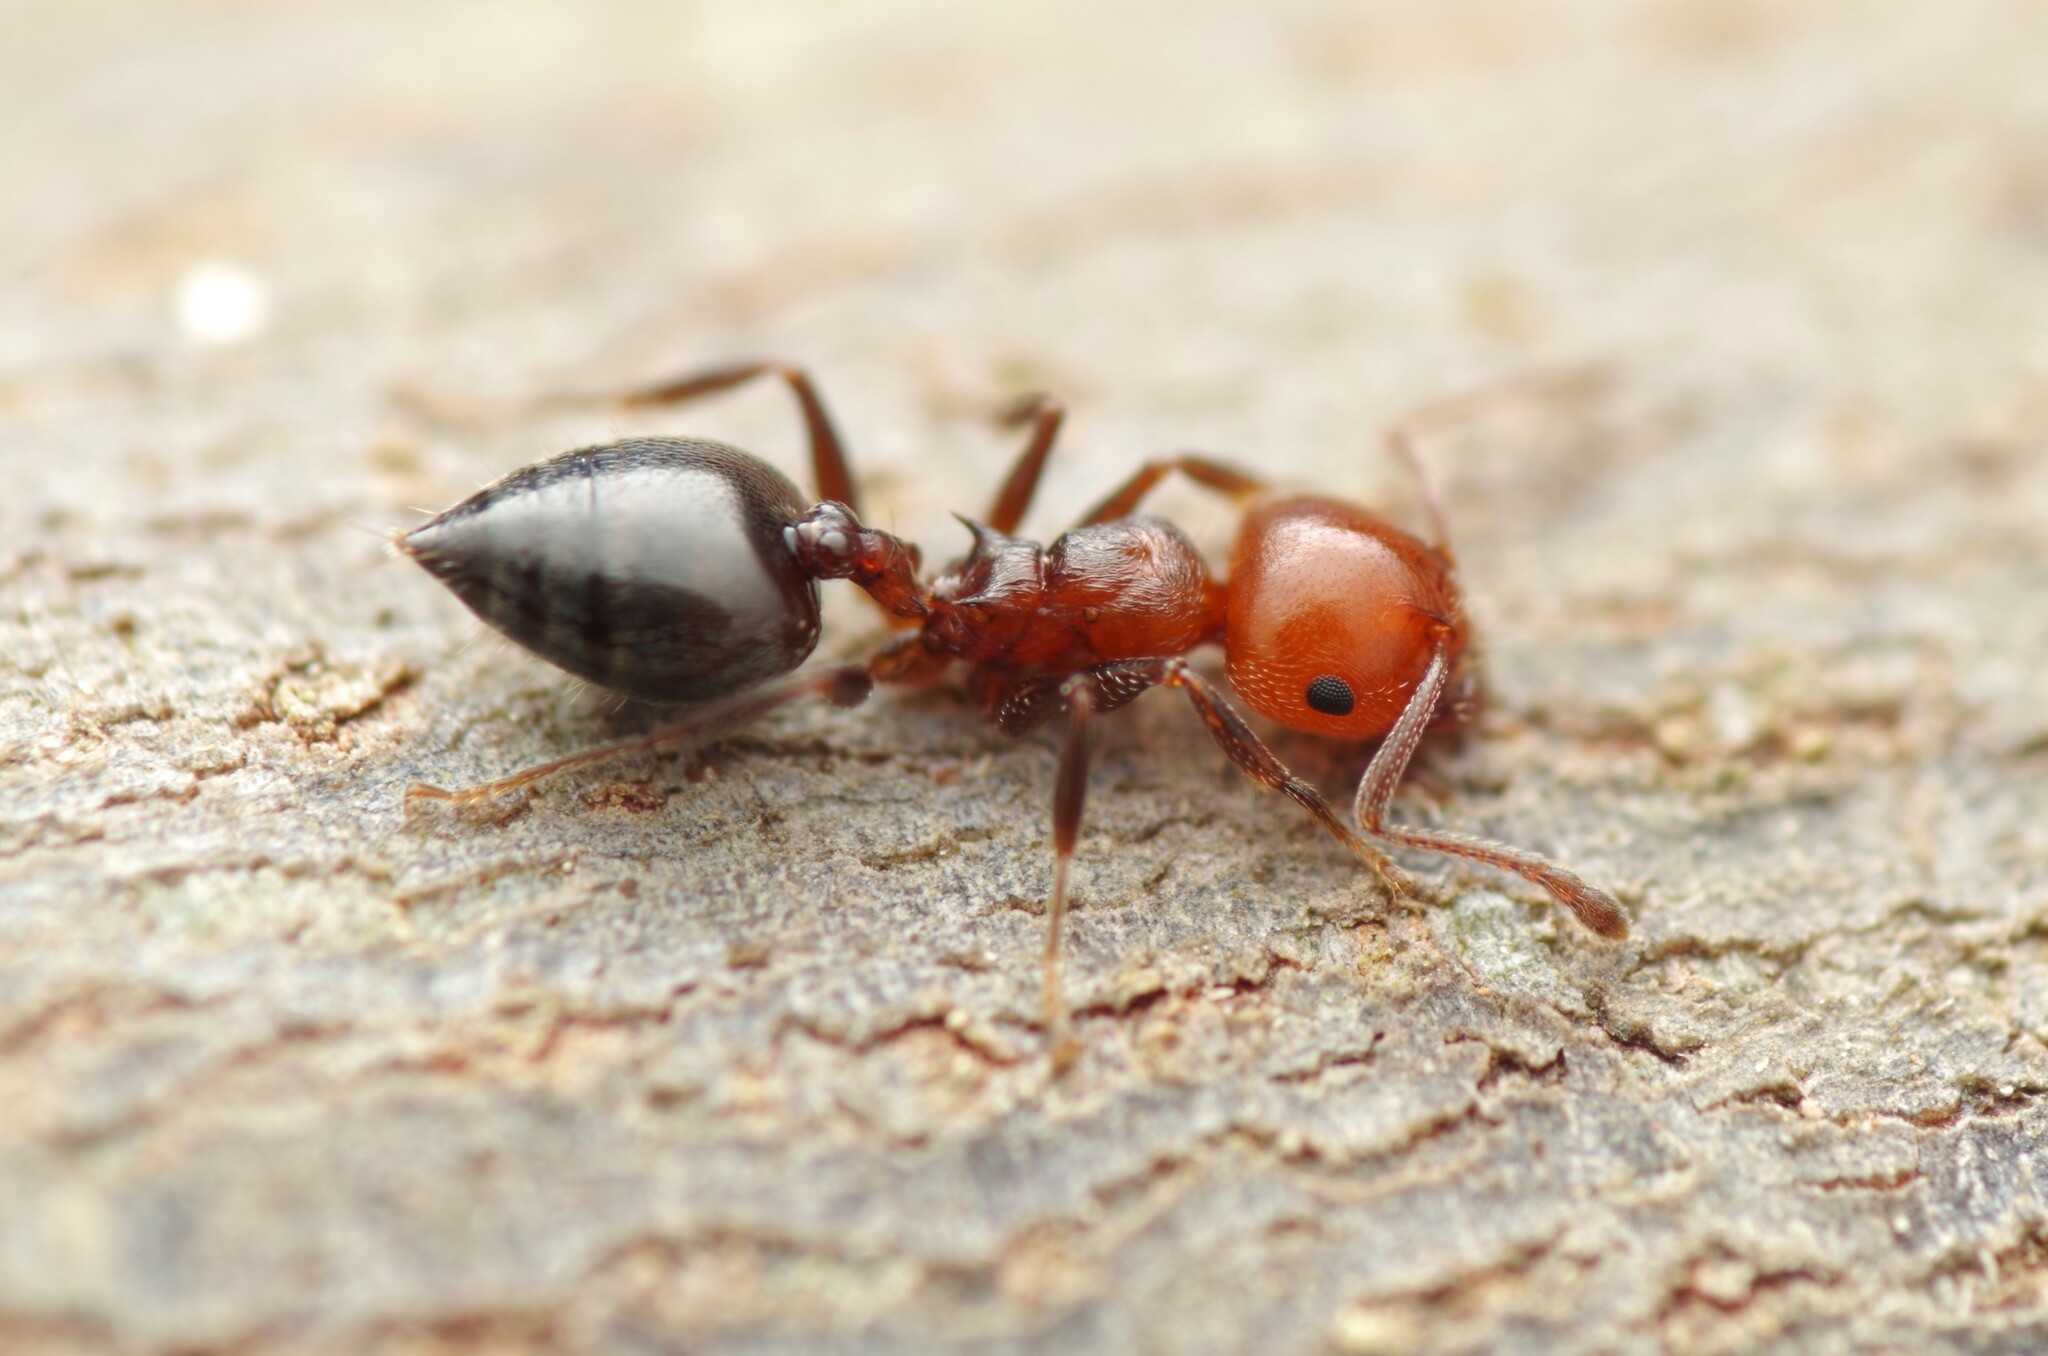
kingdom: Animalia
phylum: Arthropoda
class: Insecta
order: Hymenoptera
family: Formicidae
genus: Crematogaster
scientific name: Crematogaster scutellaris
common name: Fourmi du liège
